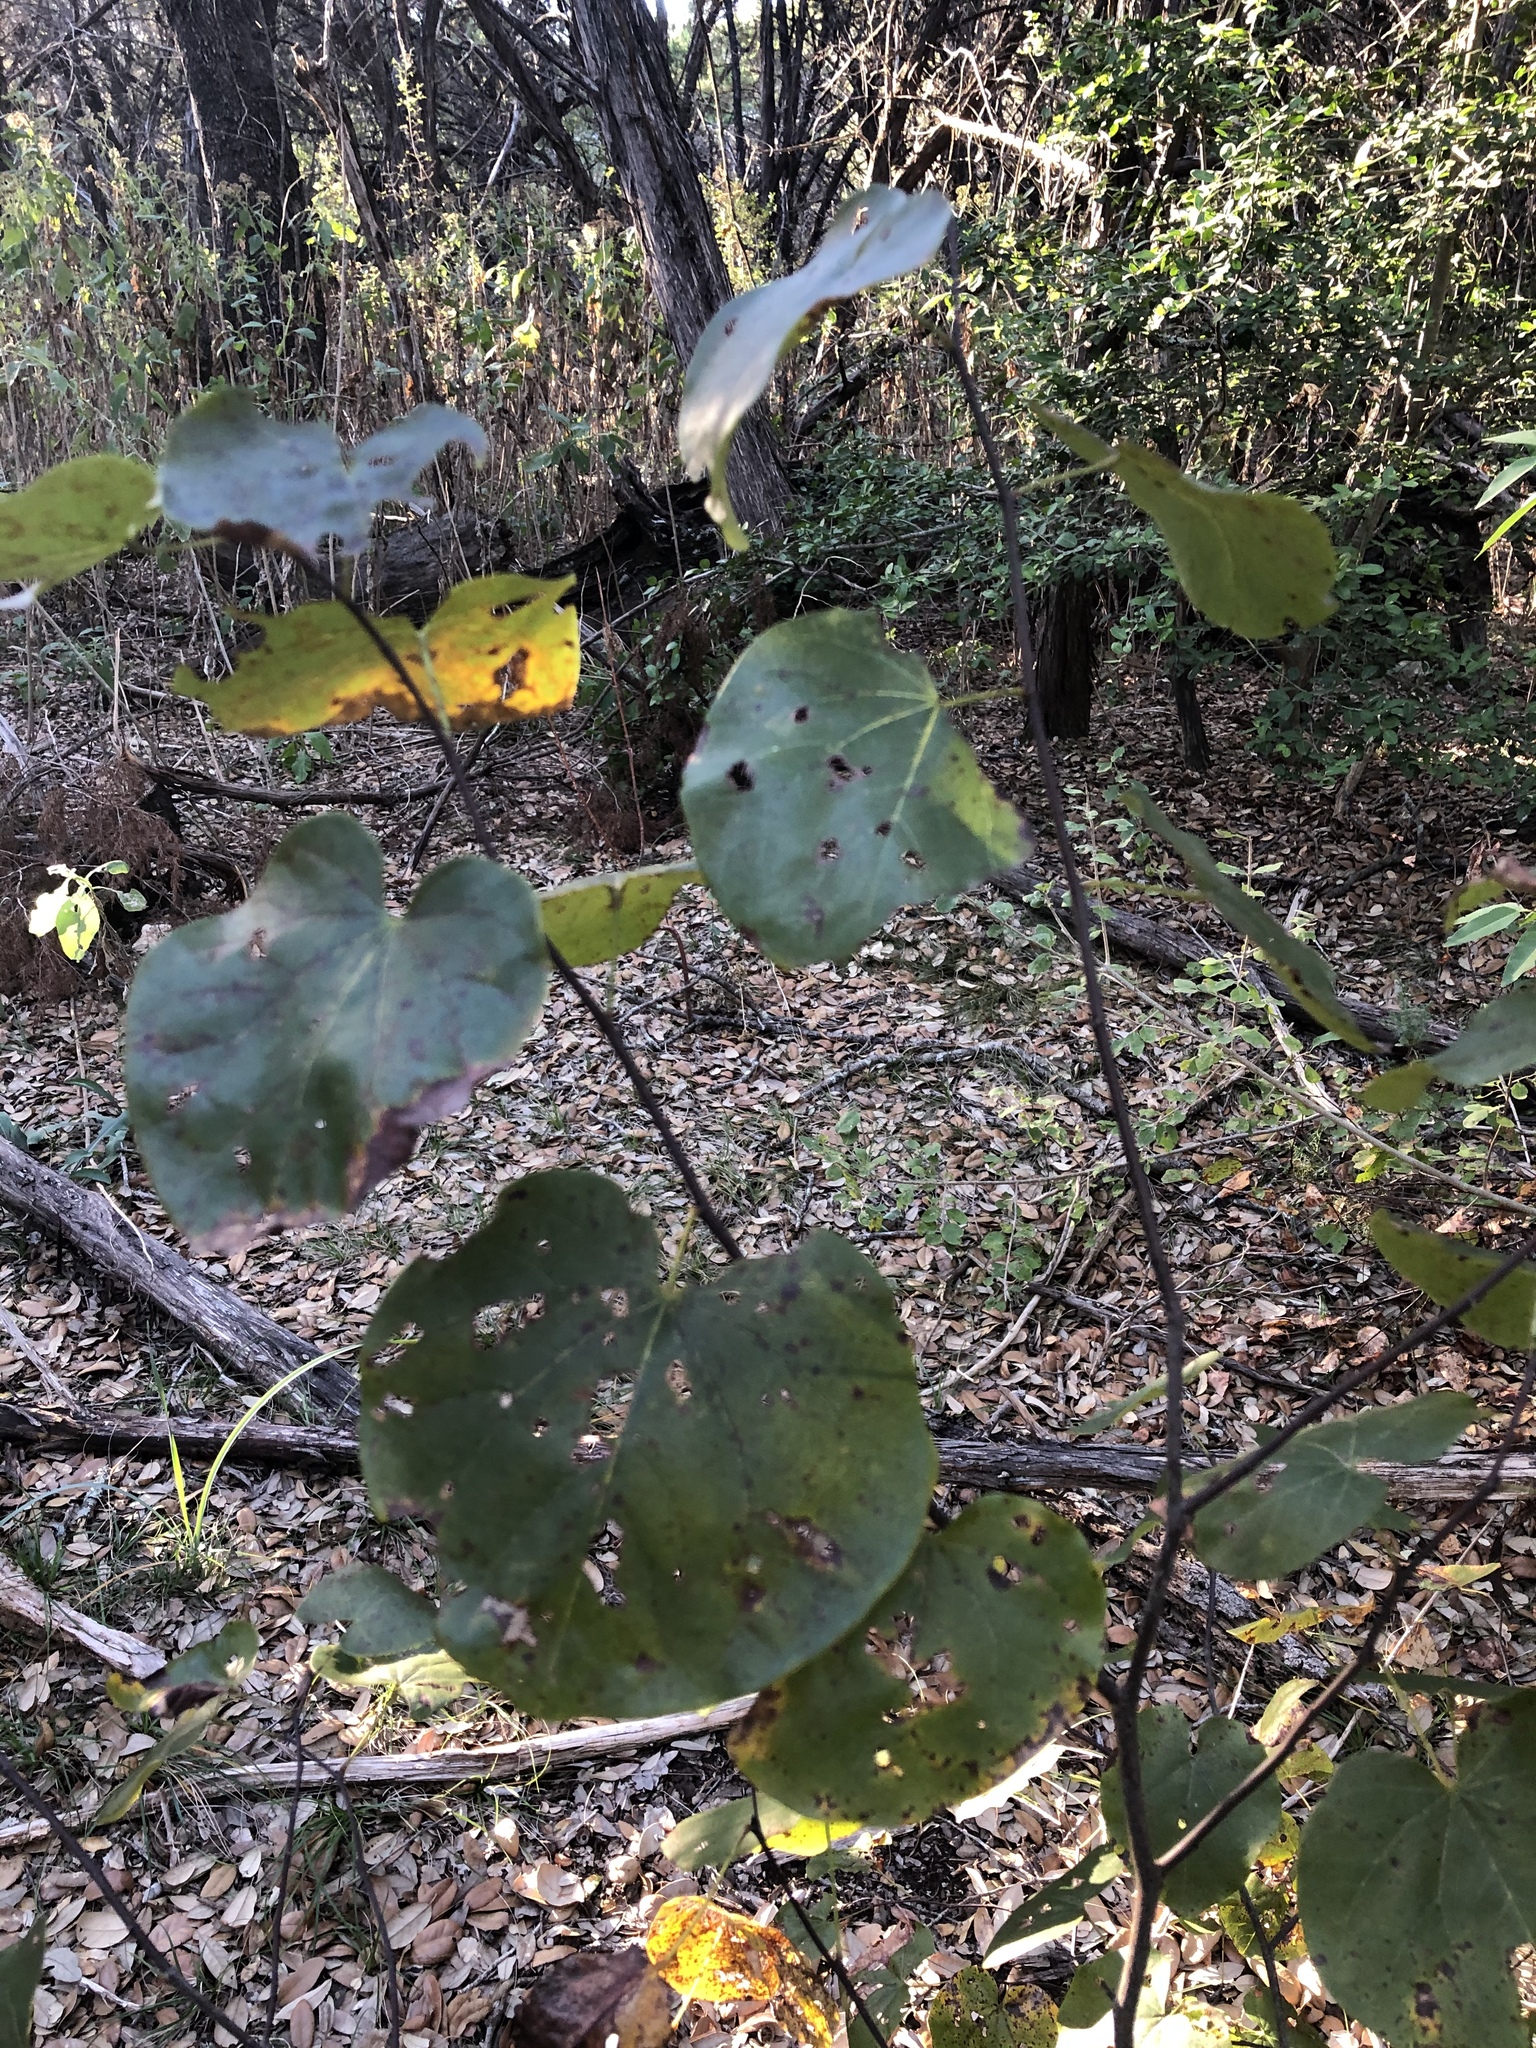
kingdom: Plantae
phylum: Tracheophyta
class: Magnoliopsida
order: Fabales
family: Fabaceae
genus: Cercis
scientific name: Cercis canadensis
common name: Eastern redbud
